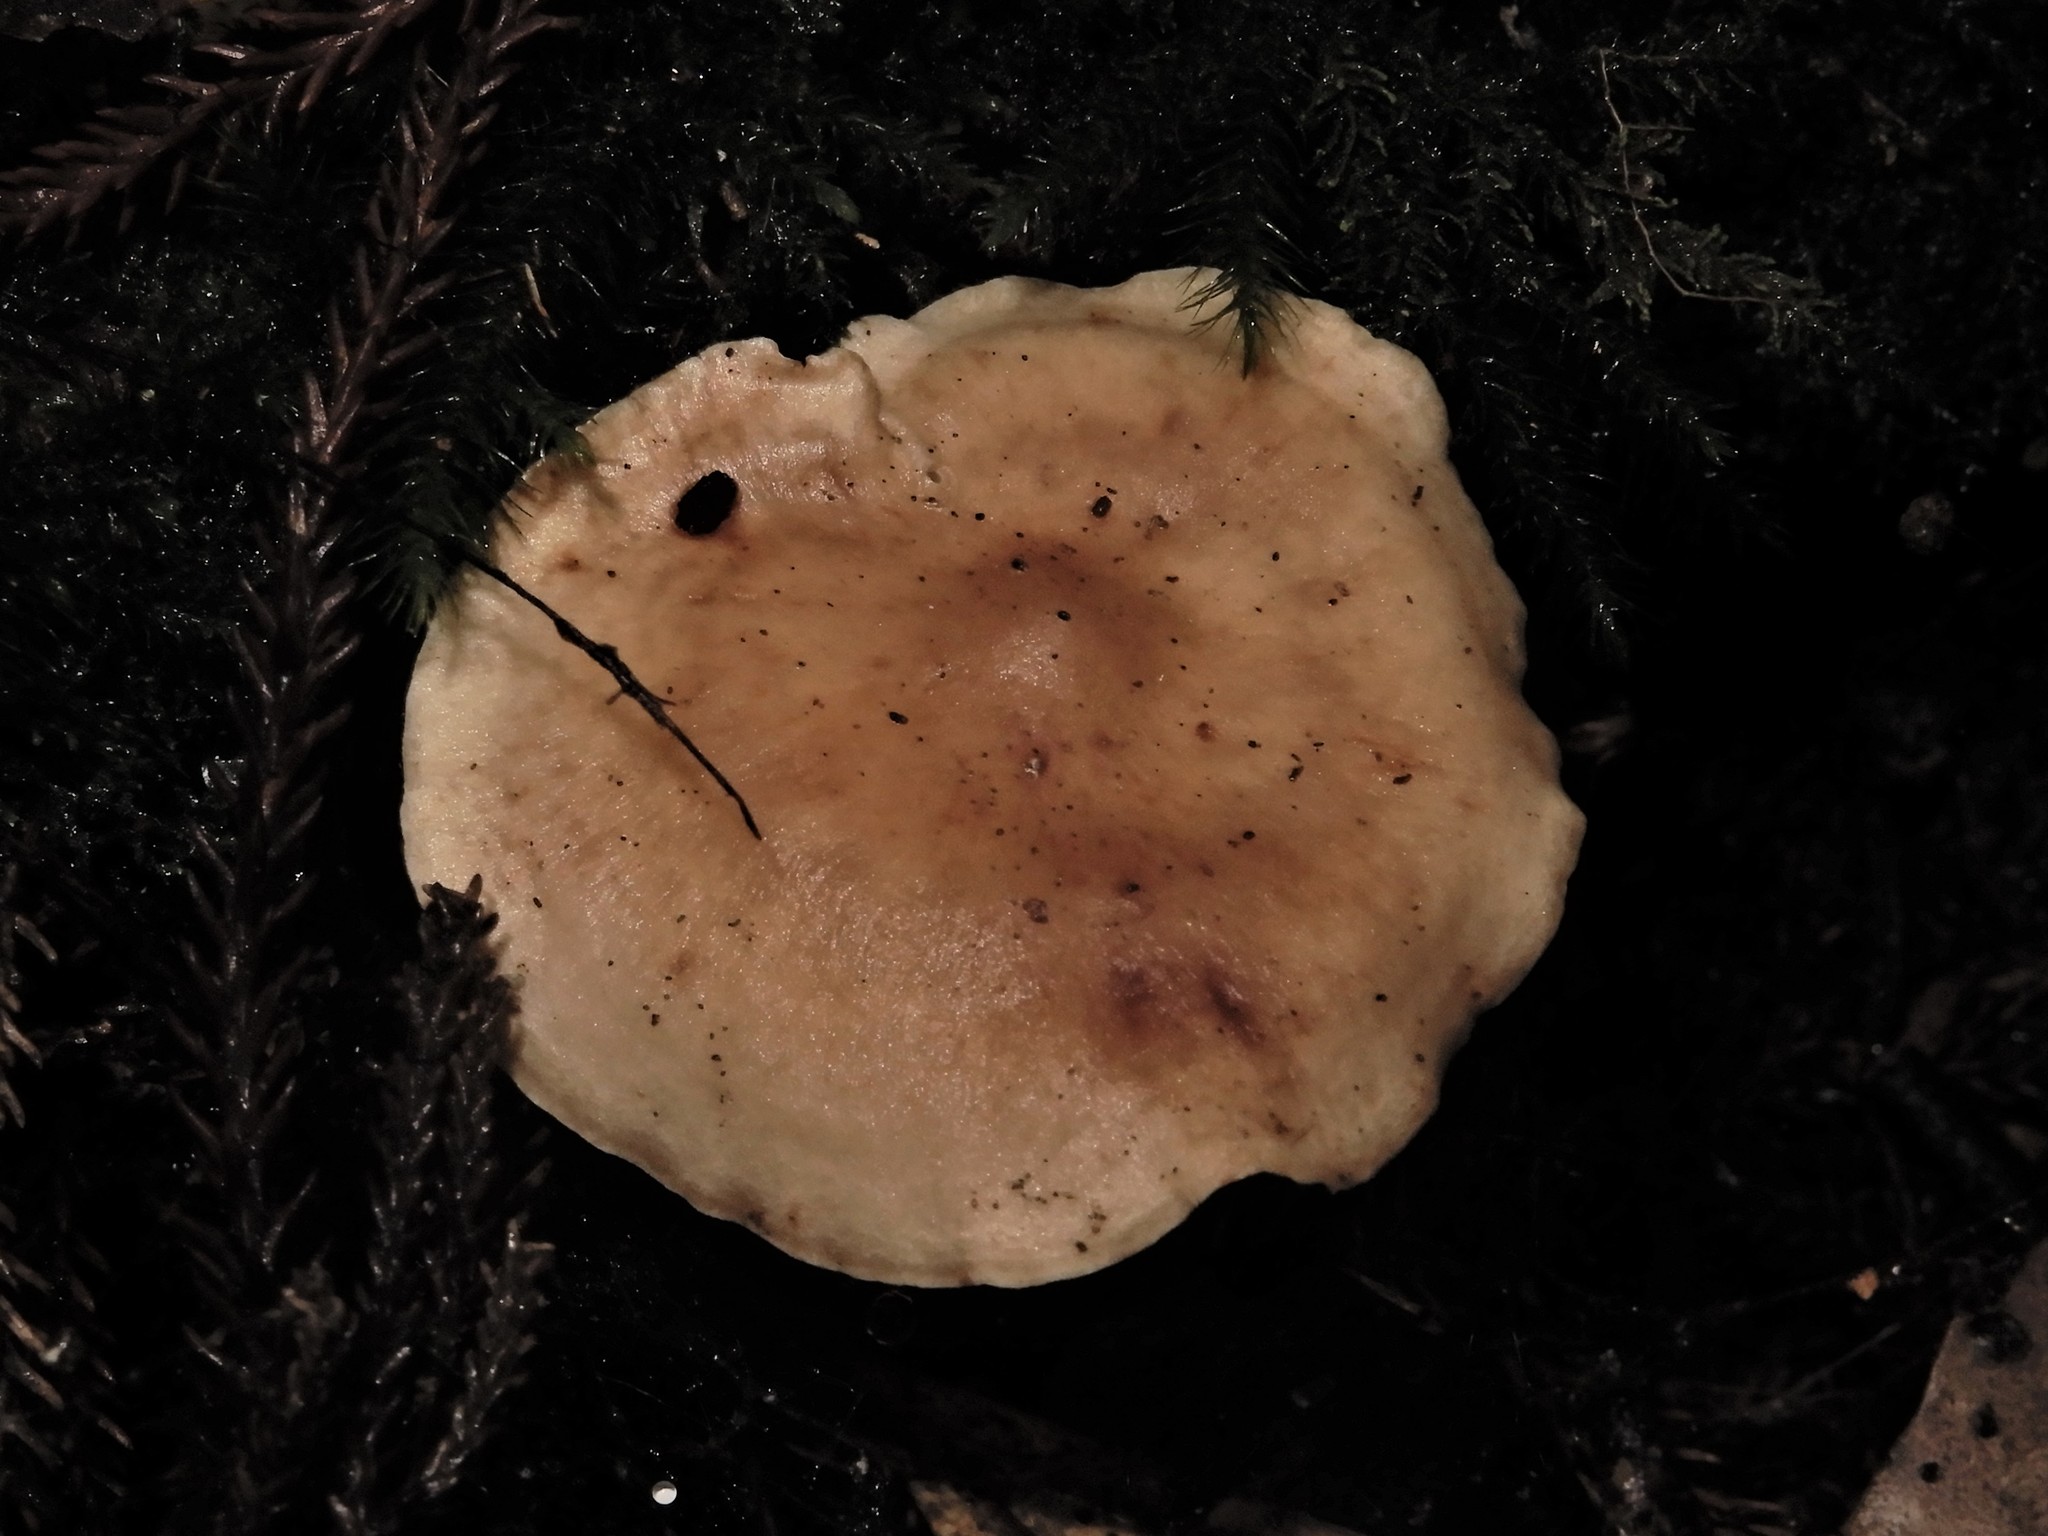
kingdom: Fungi
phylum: Basidiomycota
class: Agaricomycetes
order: Agaricales
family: Entolomataceae
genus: Rhodocybe
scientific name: Rhodocybe
